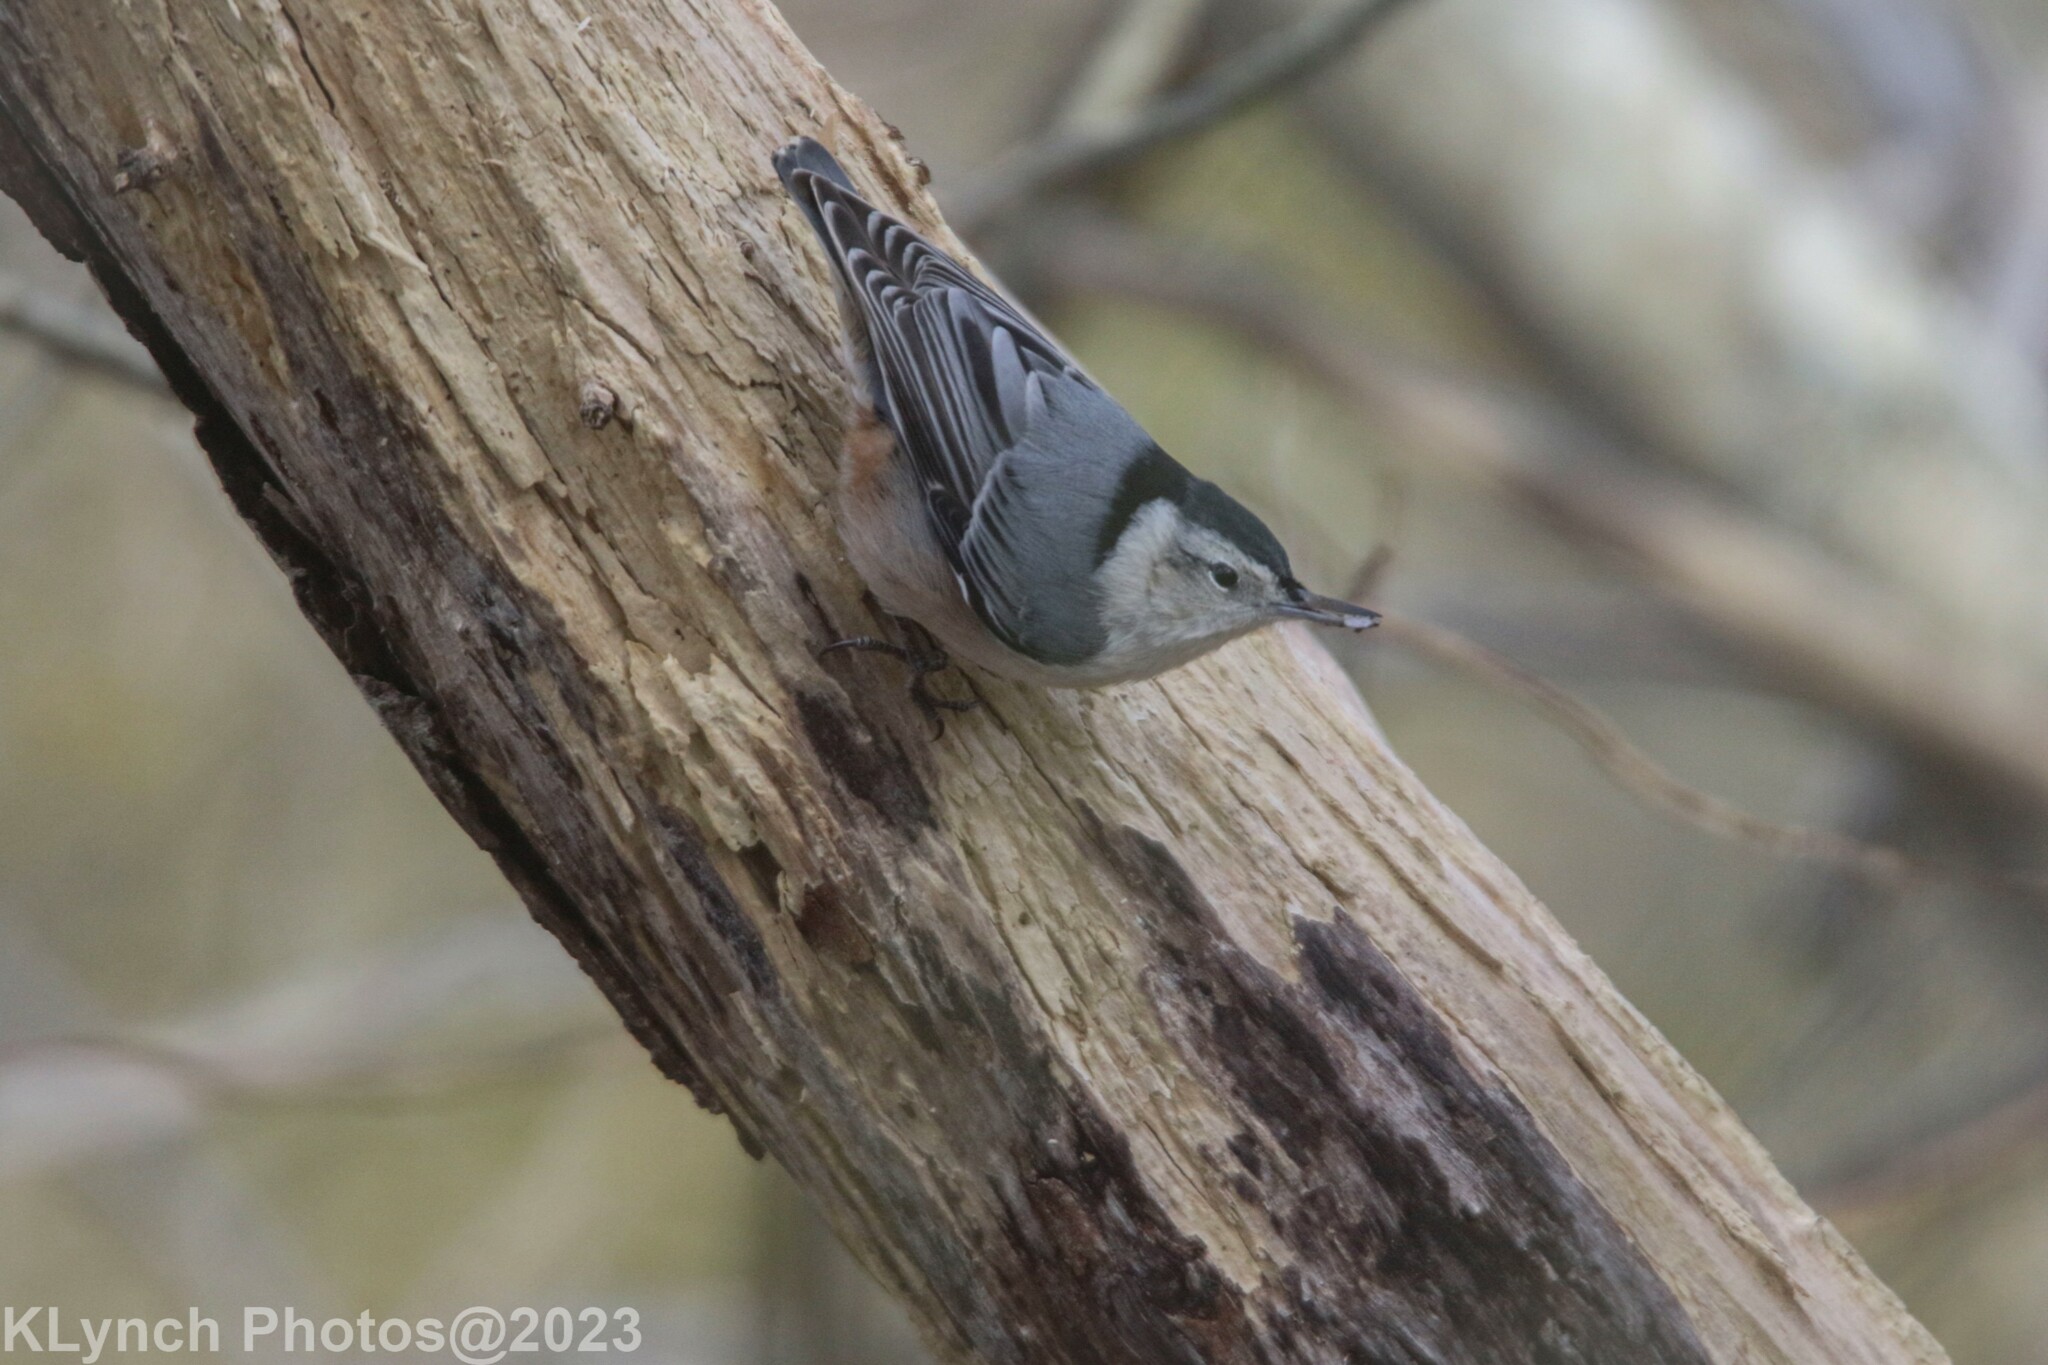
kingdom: Animalia
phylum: Chordata
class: Aves
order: Passeriformes
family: Sittidae
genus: Sitta
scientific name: Sitta carolinensis
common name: White-breasted nuthatch
